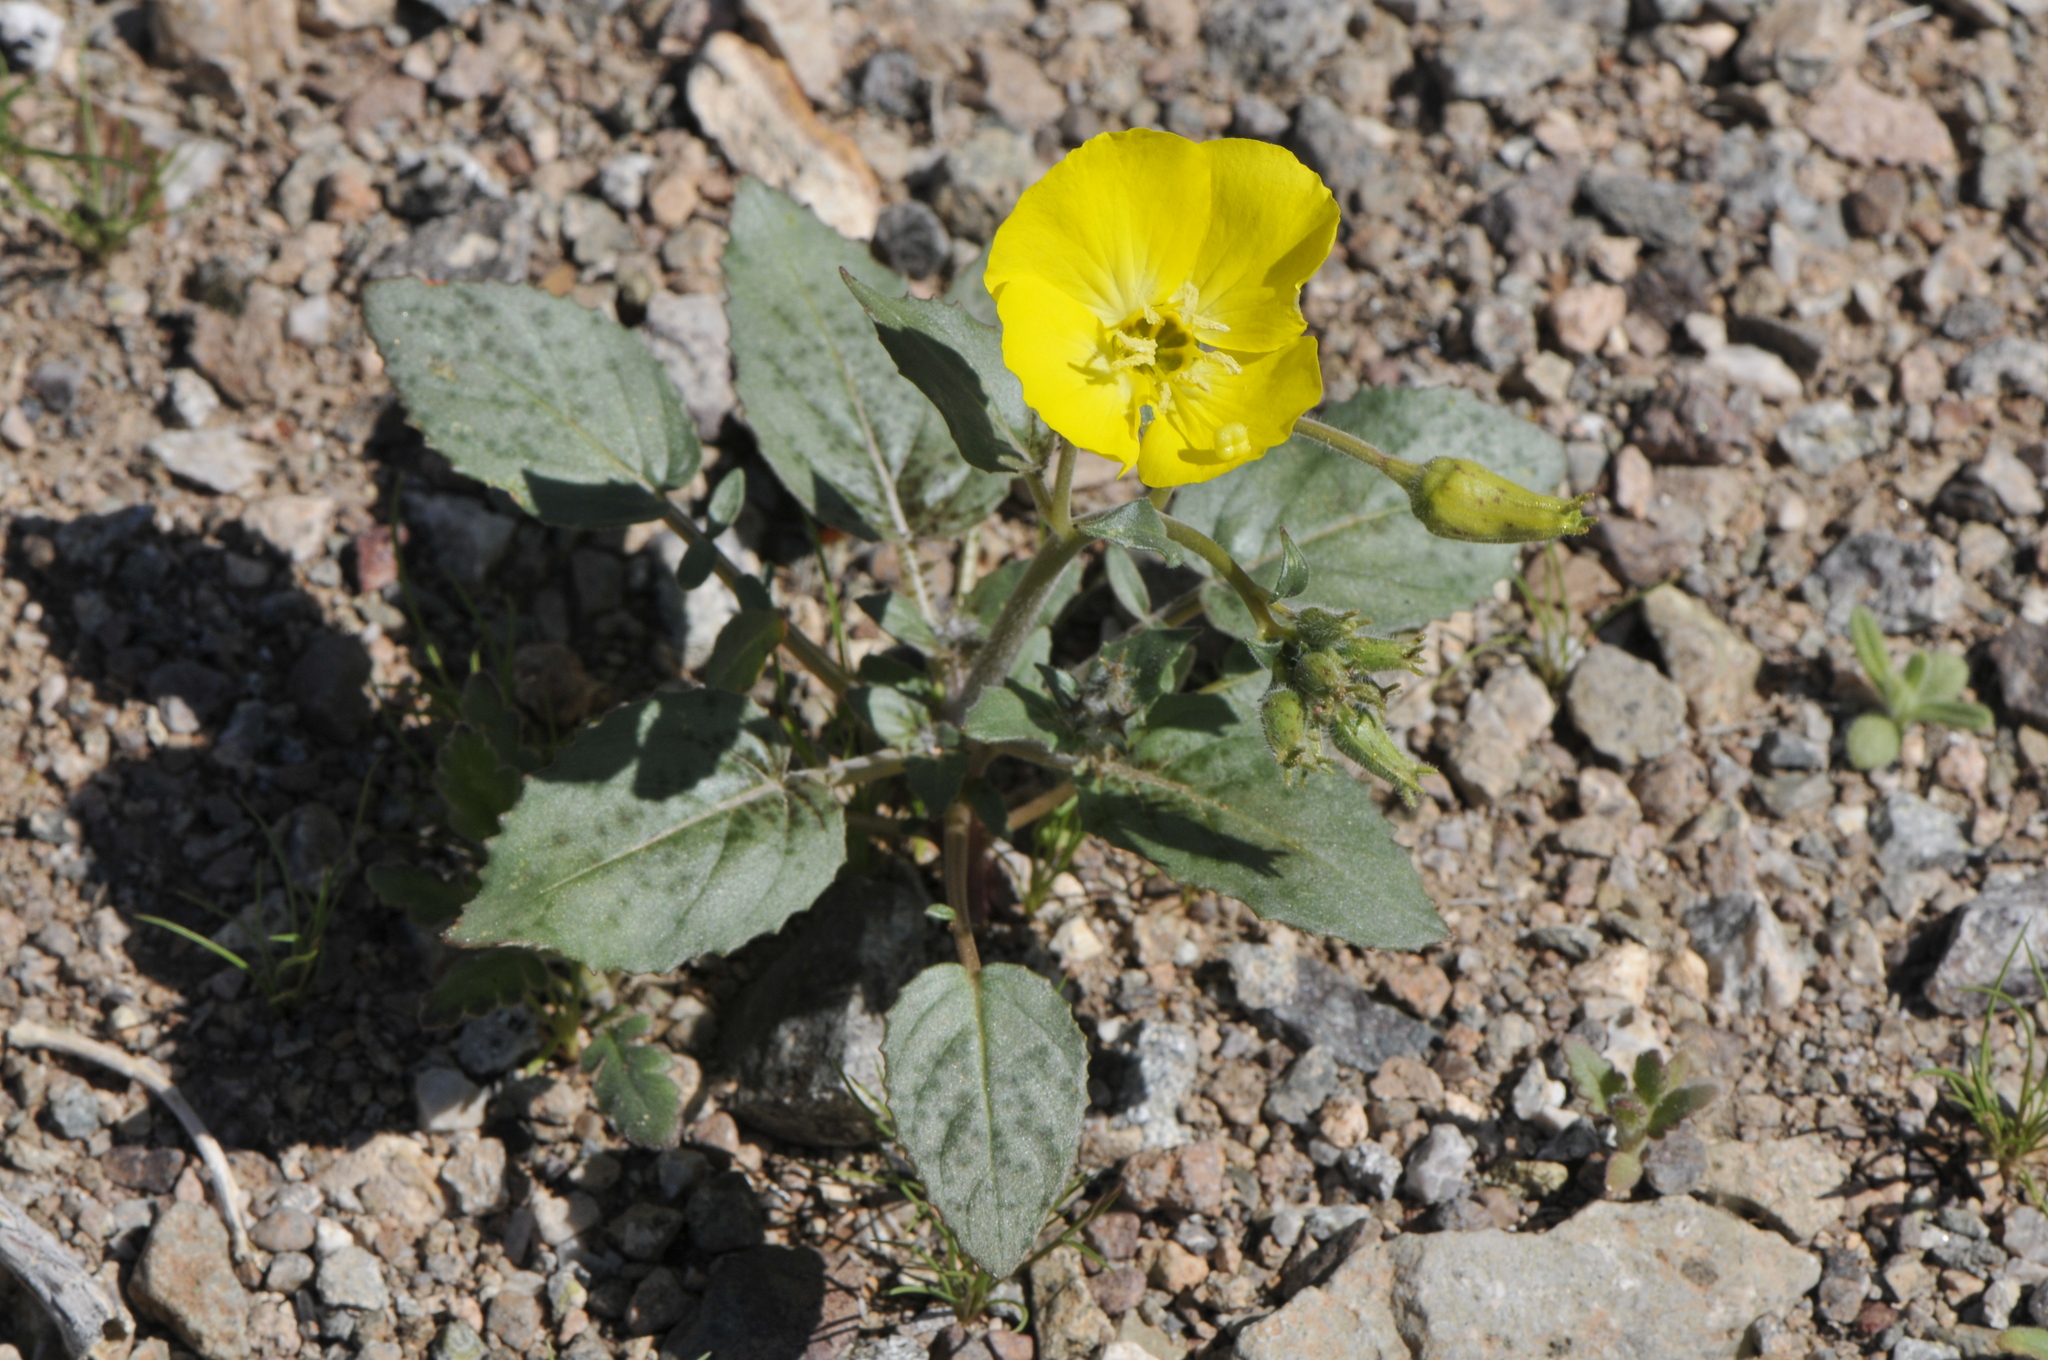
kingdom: Plantae
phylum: Tracheophyta
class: Magnoliopsida
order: Myrtales
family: Onagraceae
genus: Chylismia
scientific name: Chylismia brevipes
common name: Yellow cups
